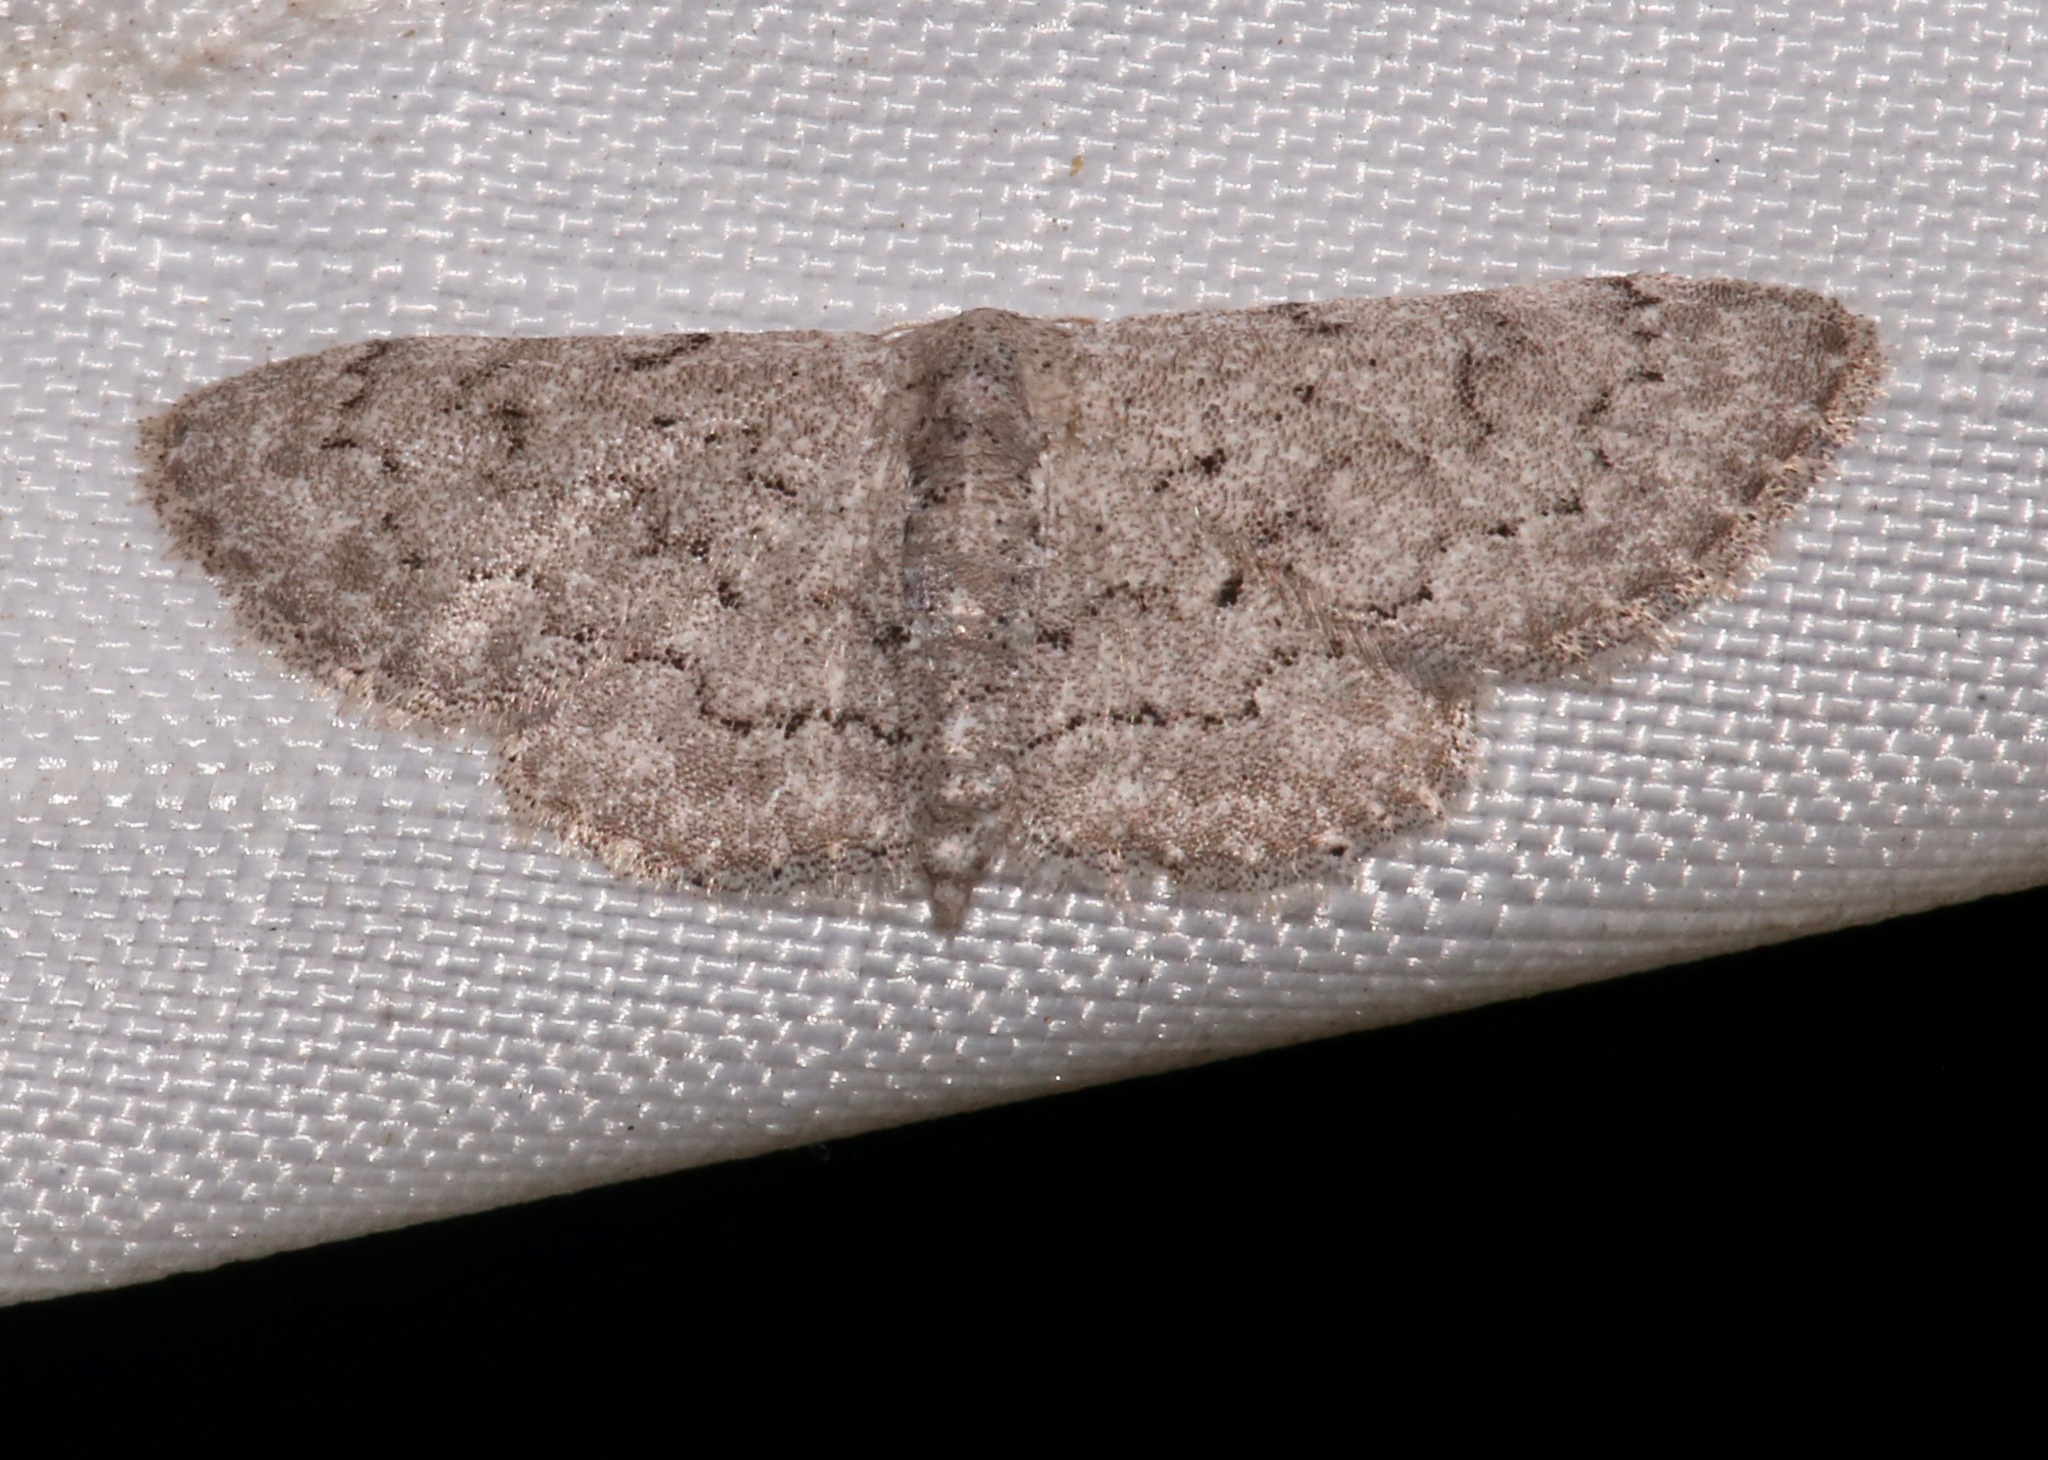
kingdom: Animalia
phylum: Arthropoda
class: Insecta
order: Lepidoptera
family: Geometridae
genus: Idaea
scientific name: Idaea violacearia
